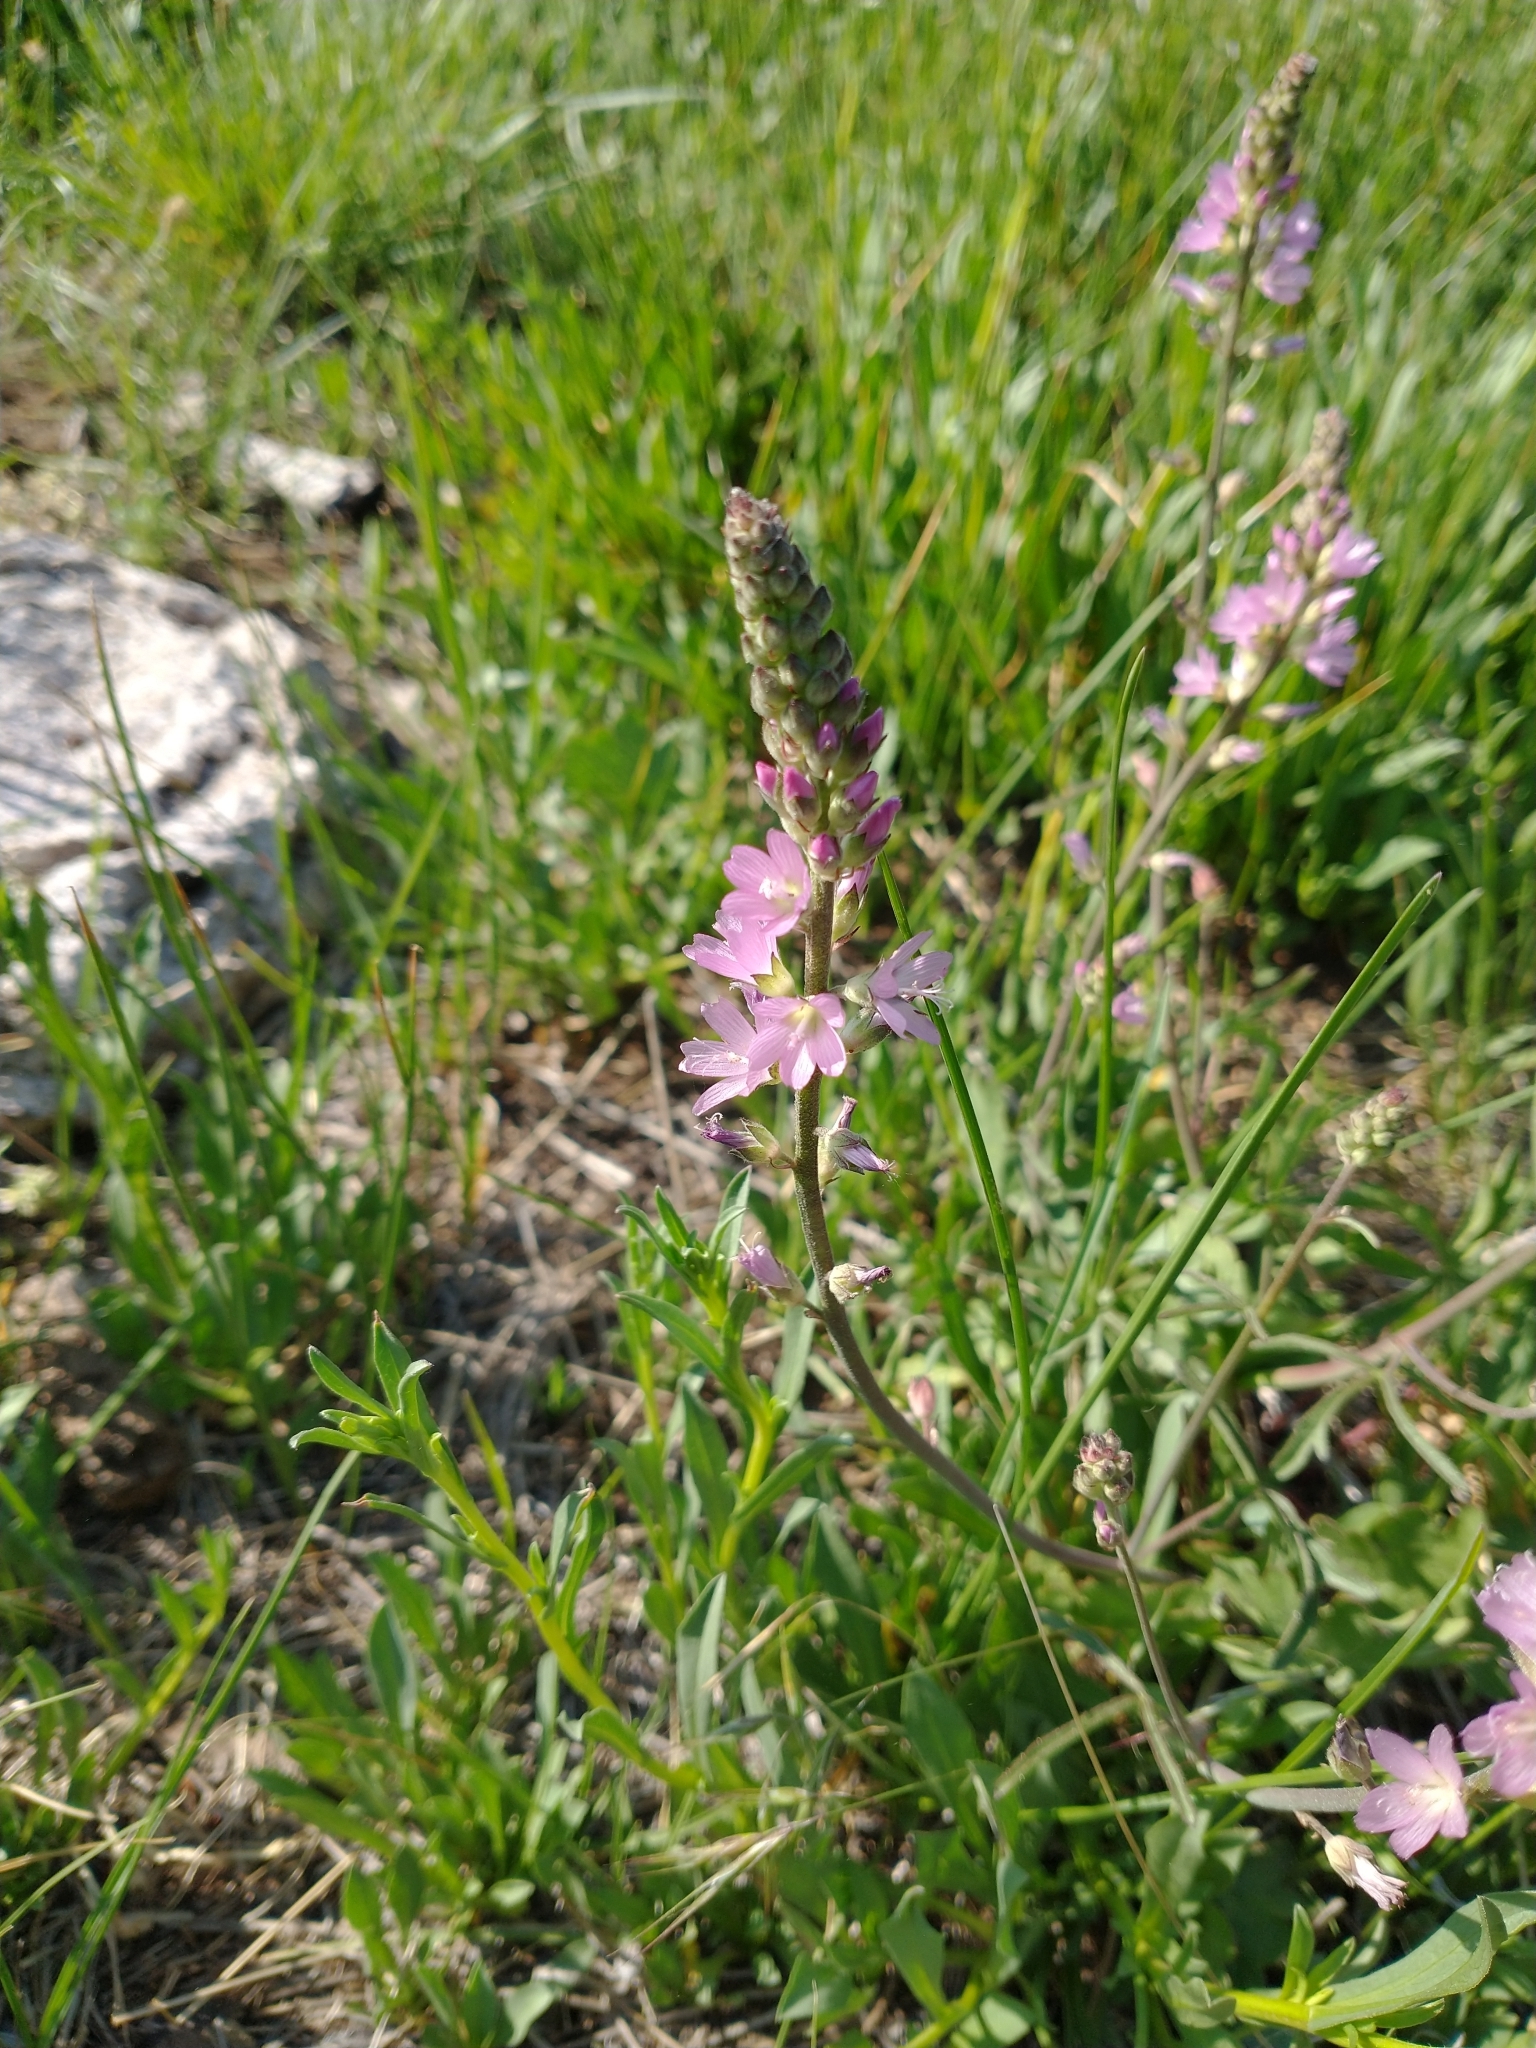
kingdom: Plantae
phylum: Tracheophyta
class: Magnoliopsida
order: Malvales
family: Malvaceae
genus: Sidalcea
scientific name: Sidalcea oregana
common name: Oregon checker-mallow
